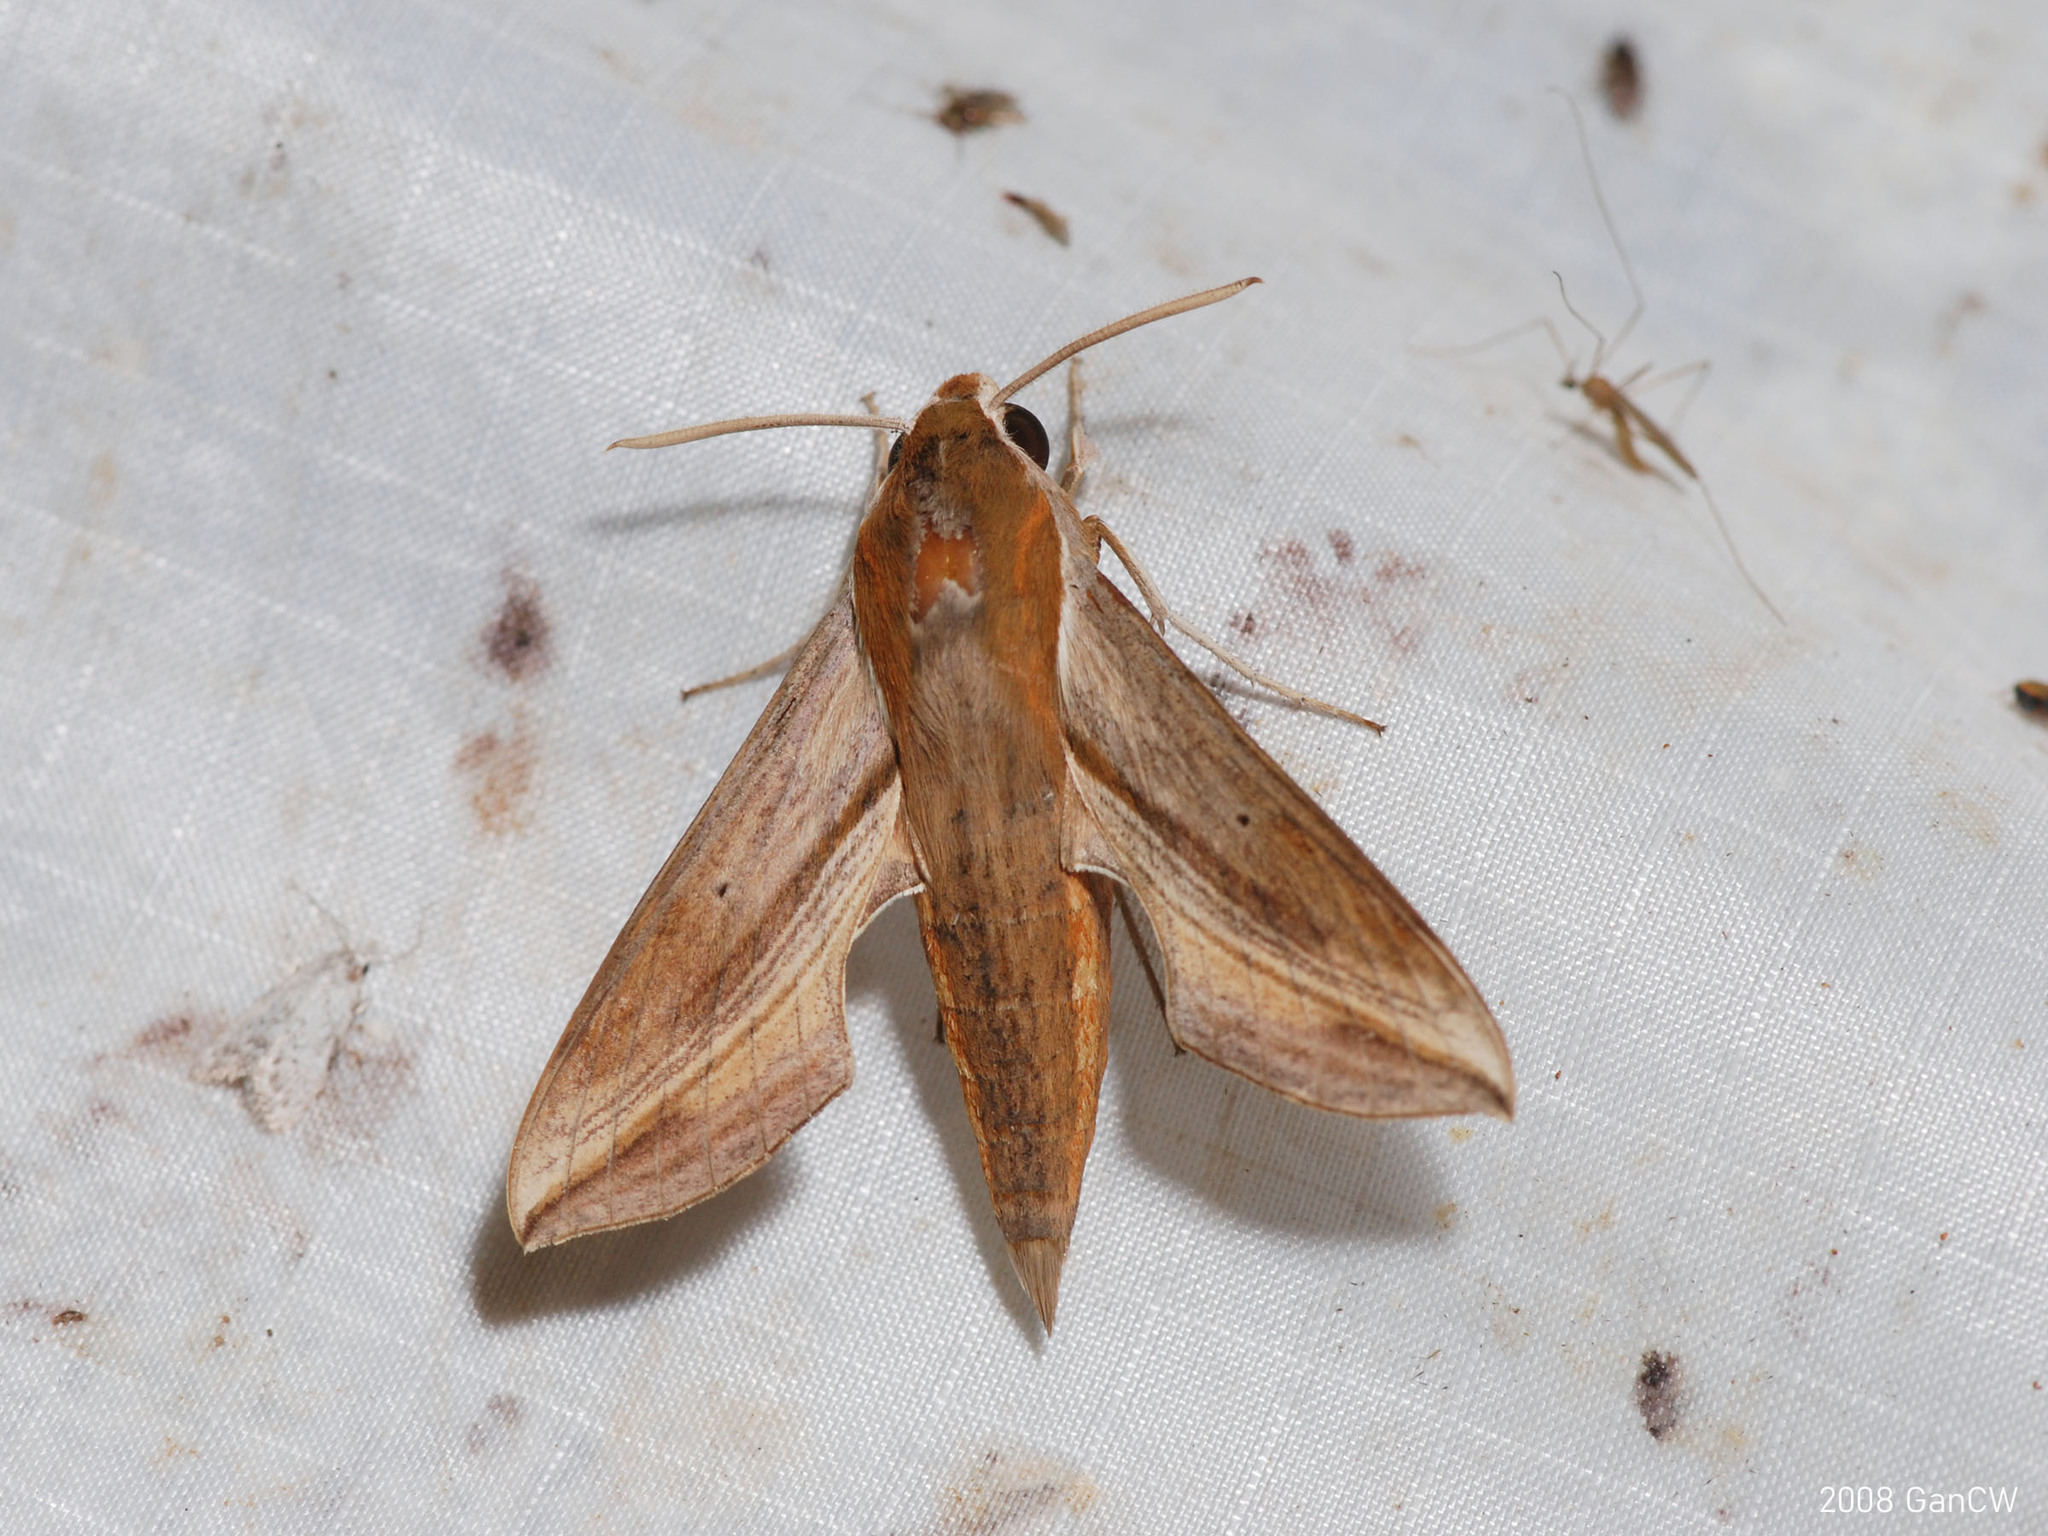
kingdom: Animalia
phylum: Arthropoda
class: Insecta
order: Lepidoptera
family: Sphingidae
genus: Hippotion
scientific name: Hippotion rosetta
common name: Vine hawk moth
